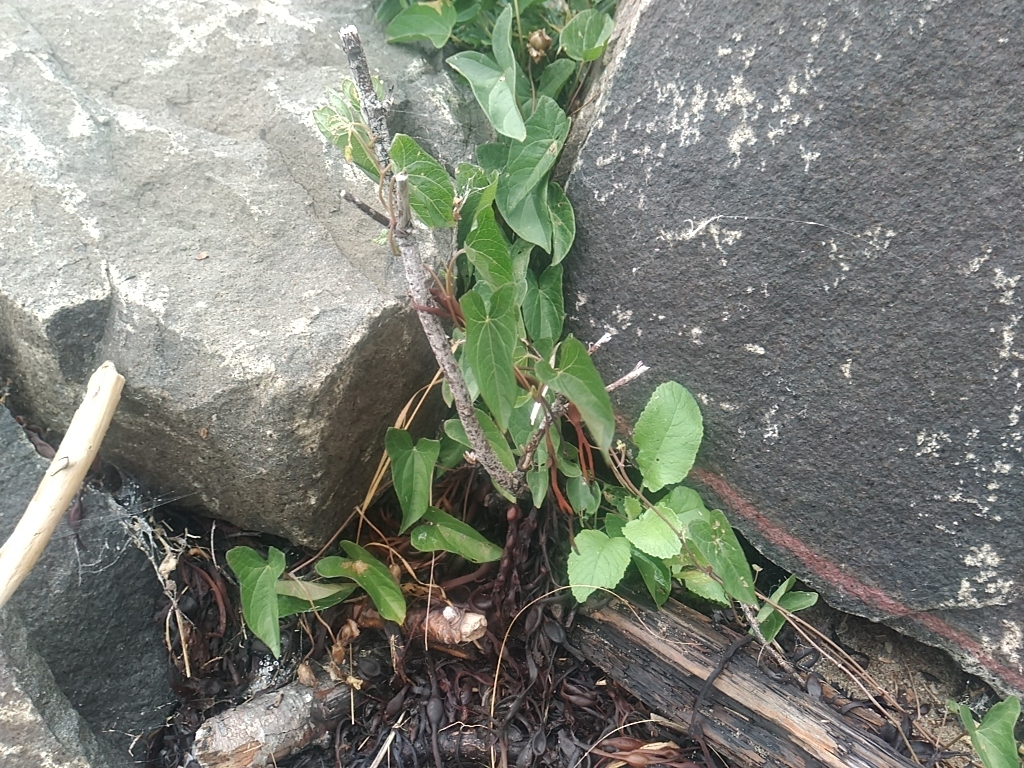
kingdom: Plantae
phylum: Tracheophyta
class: Magnoliopsida
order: Solanales
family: Convolvulaceae
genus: Calystegia
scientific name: Calystegia sepium
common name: Hedge bindweed
